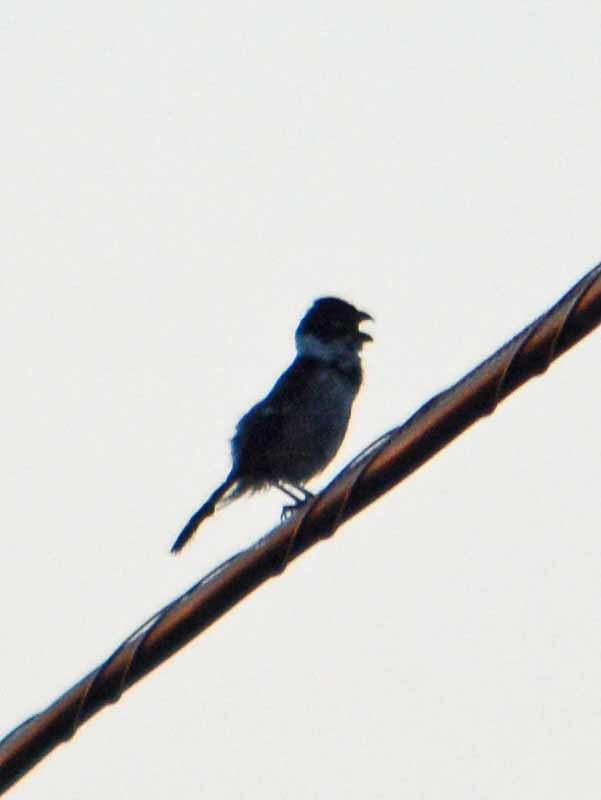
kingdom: Animalia
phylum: Chordata
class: Aves
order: Passeriformes
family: Thraupidae
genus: Sporophila
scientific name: Sporophila morelleti
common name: Morelet's seedeater
